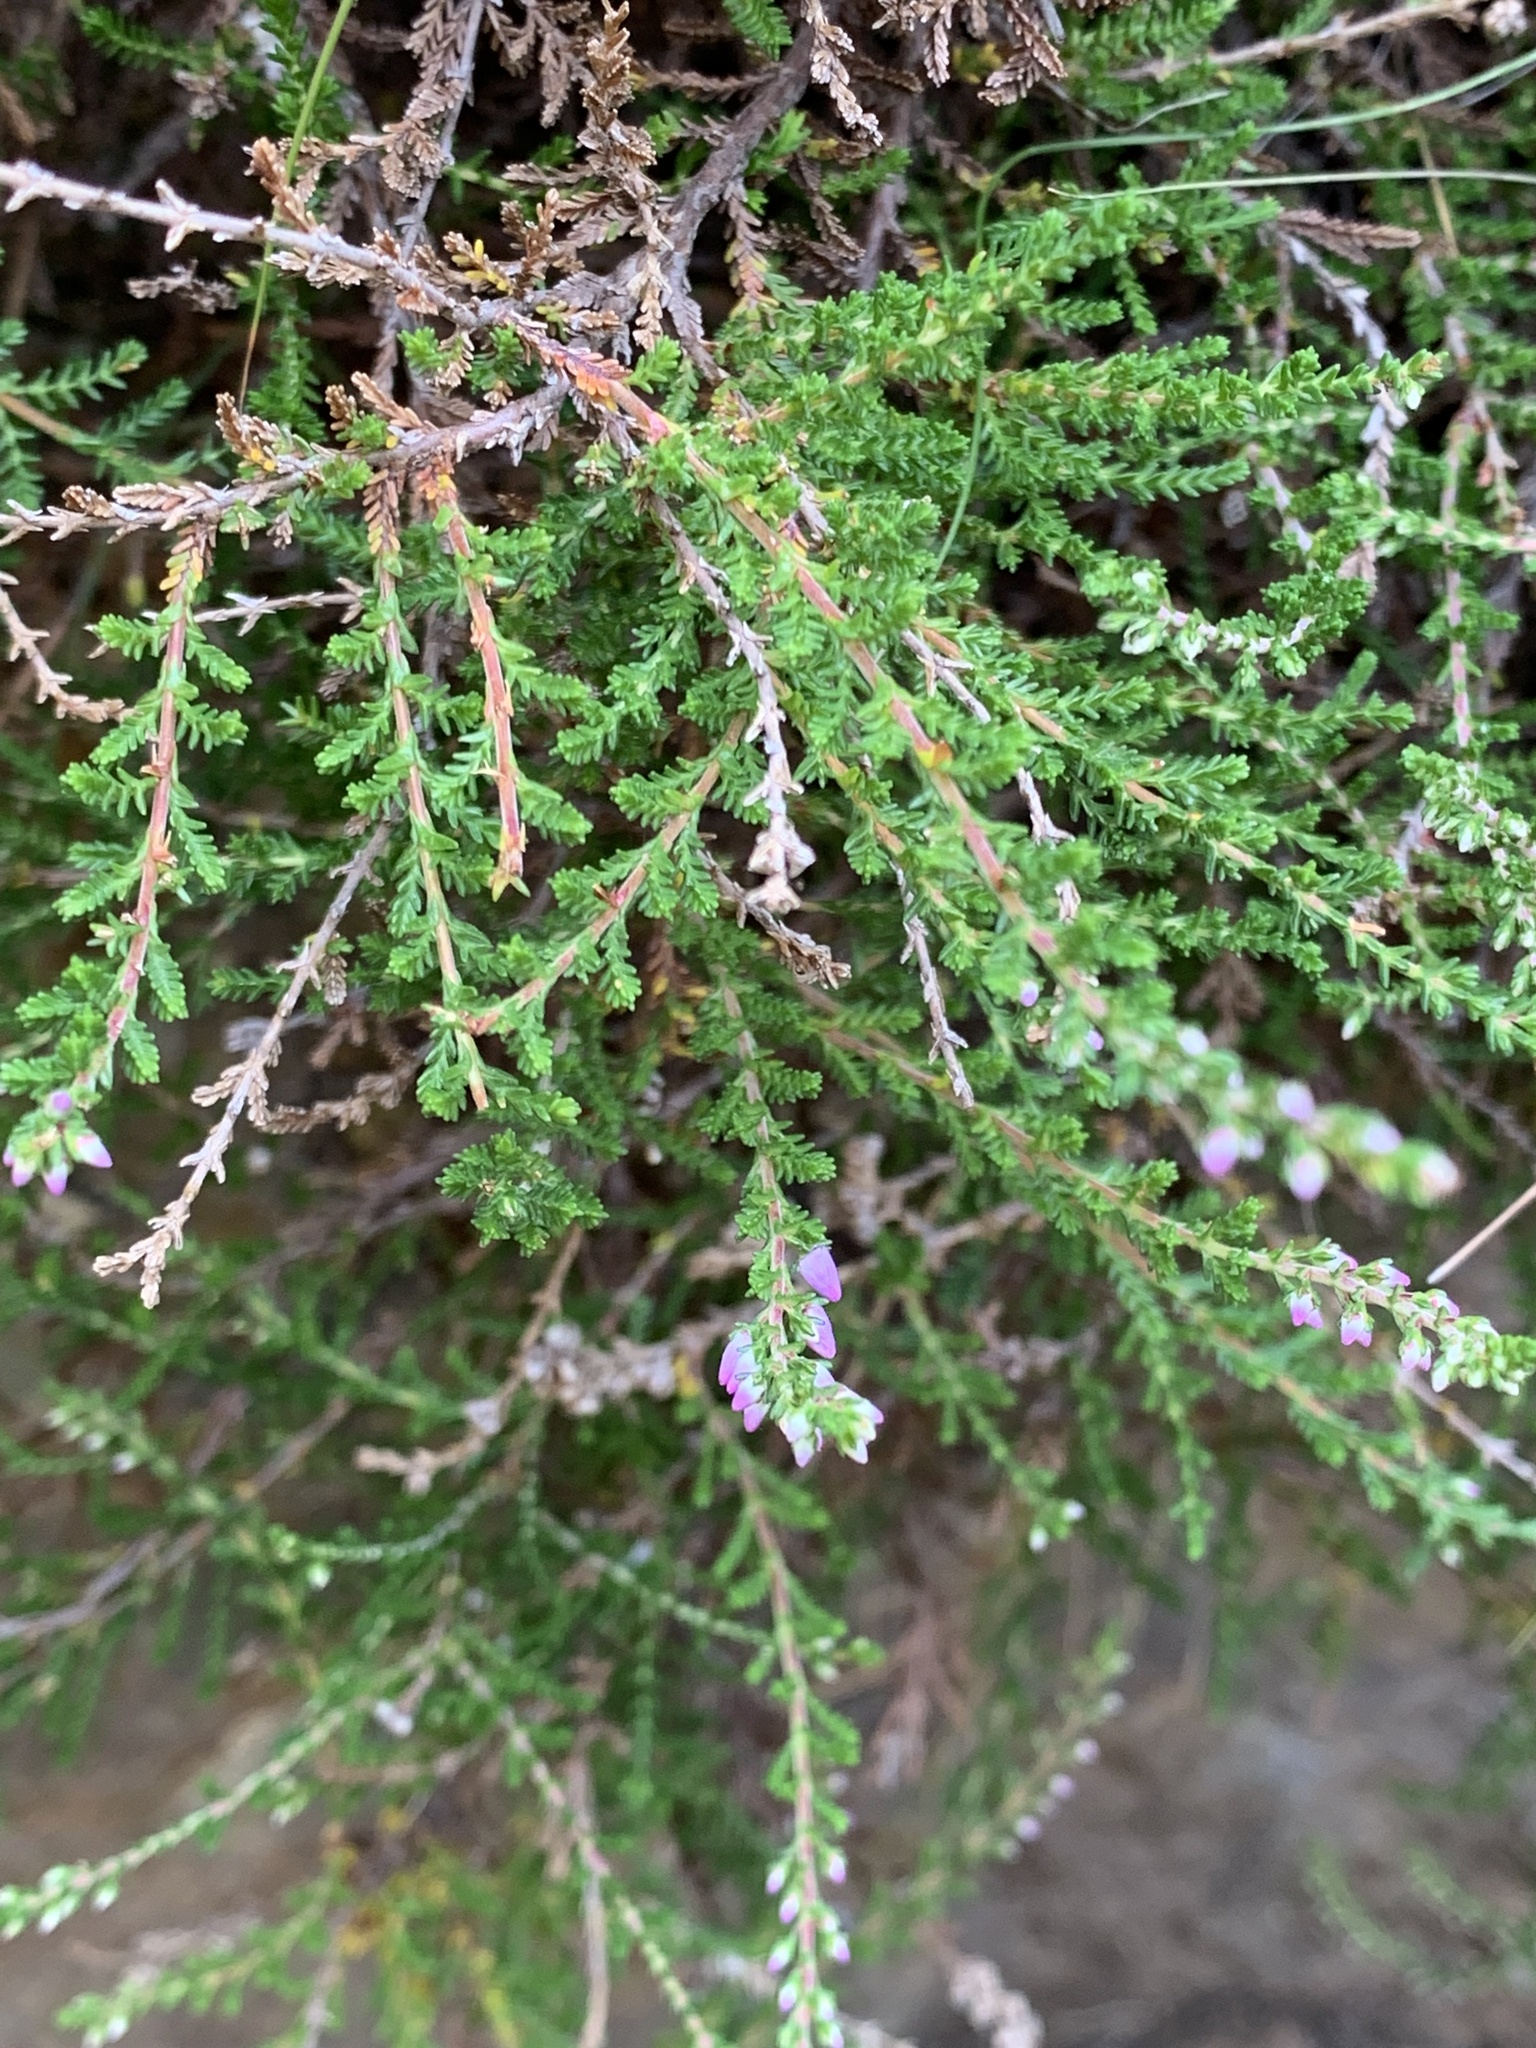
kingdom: Plantae
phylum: Tracheophyta
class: Magnoliopsida
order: Ericales
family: Ericaceae
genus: Calluna
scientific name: Calluna vulgaris
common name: Heather
